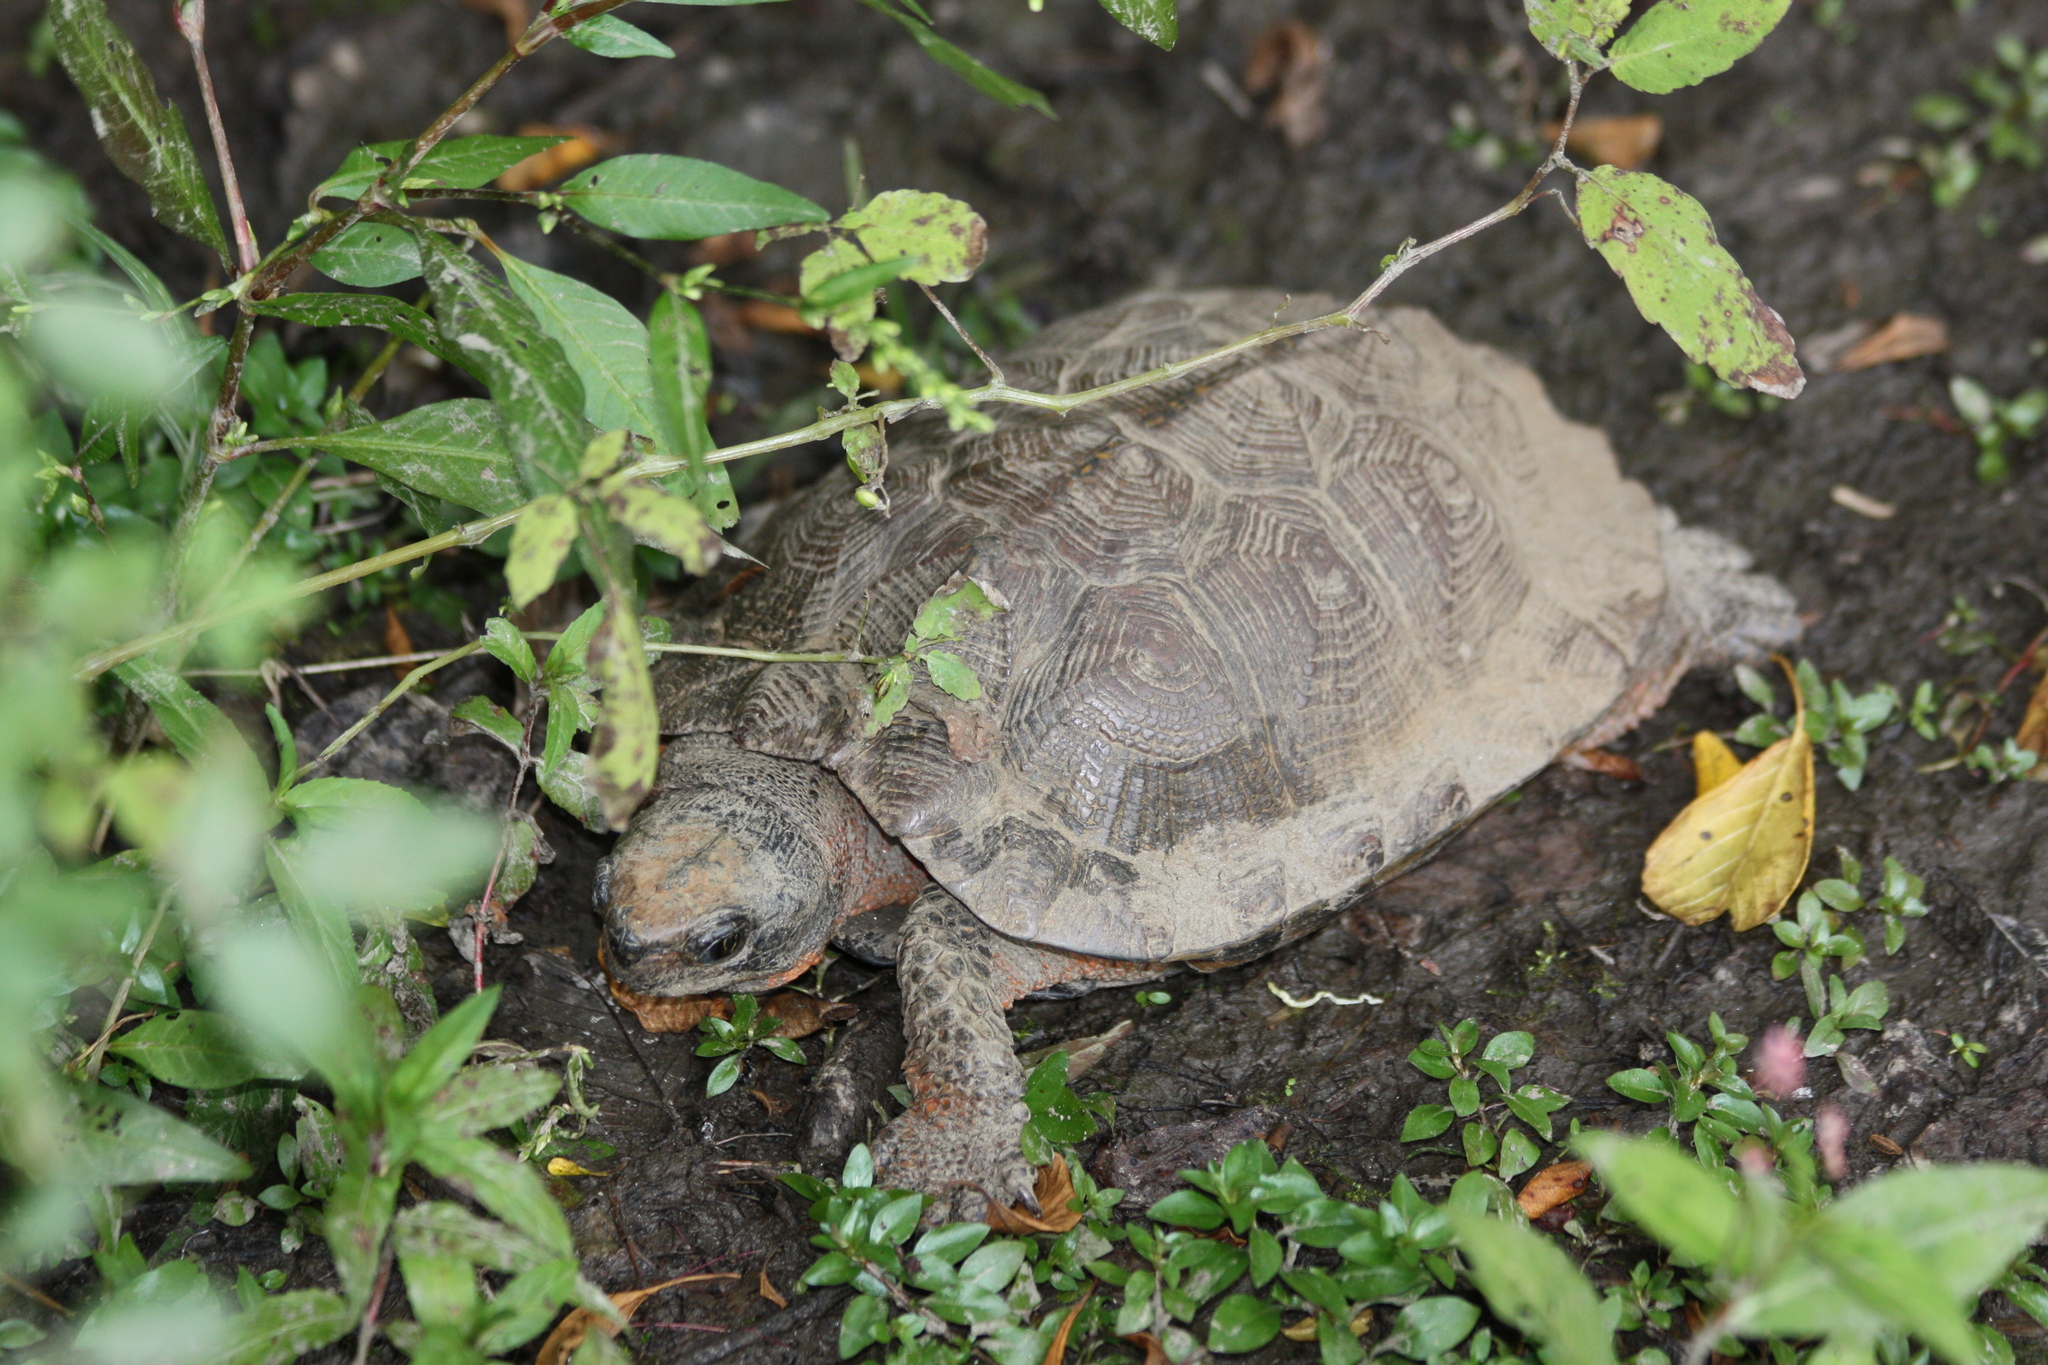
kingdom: Animalia
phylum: Chordata
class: Testudines
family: Emydidae
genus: Glyptemys
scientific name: Glyptemys insculpta
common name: Wood turtle
